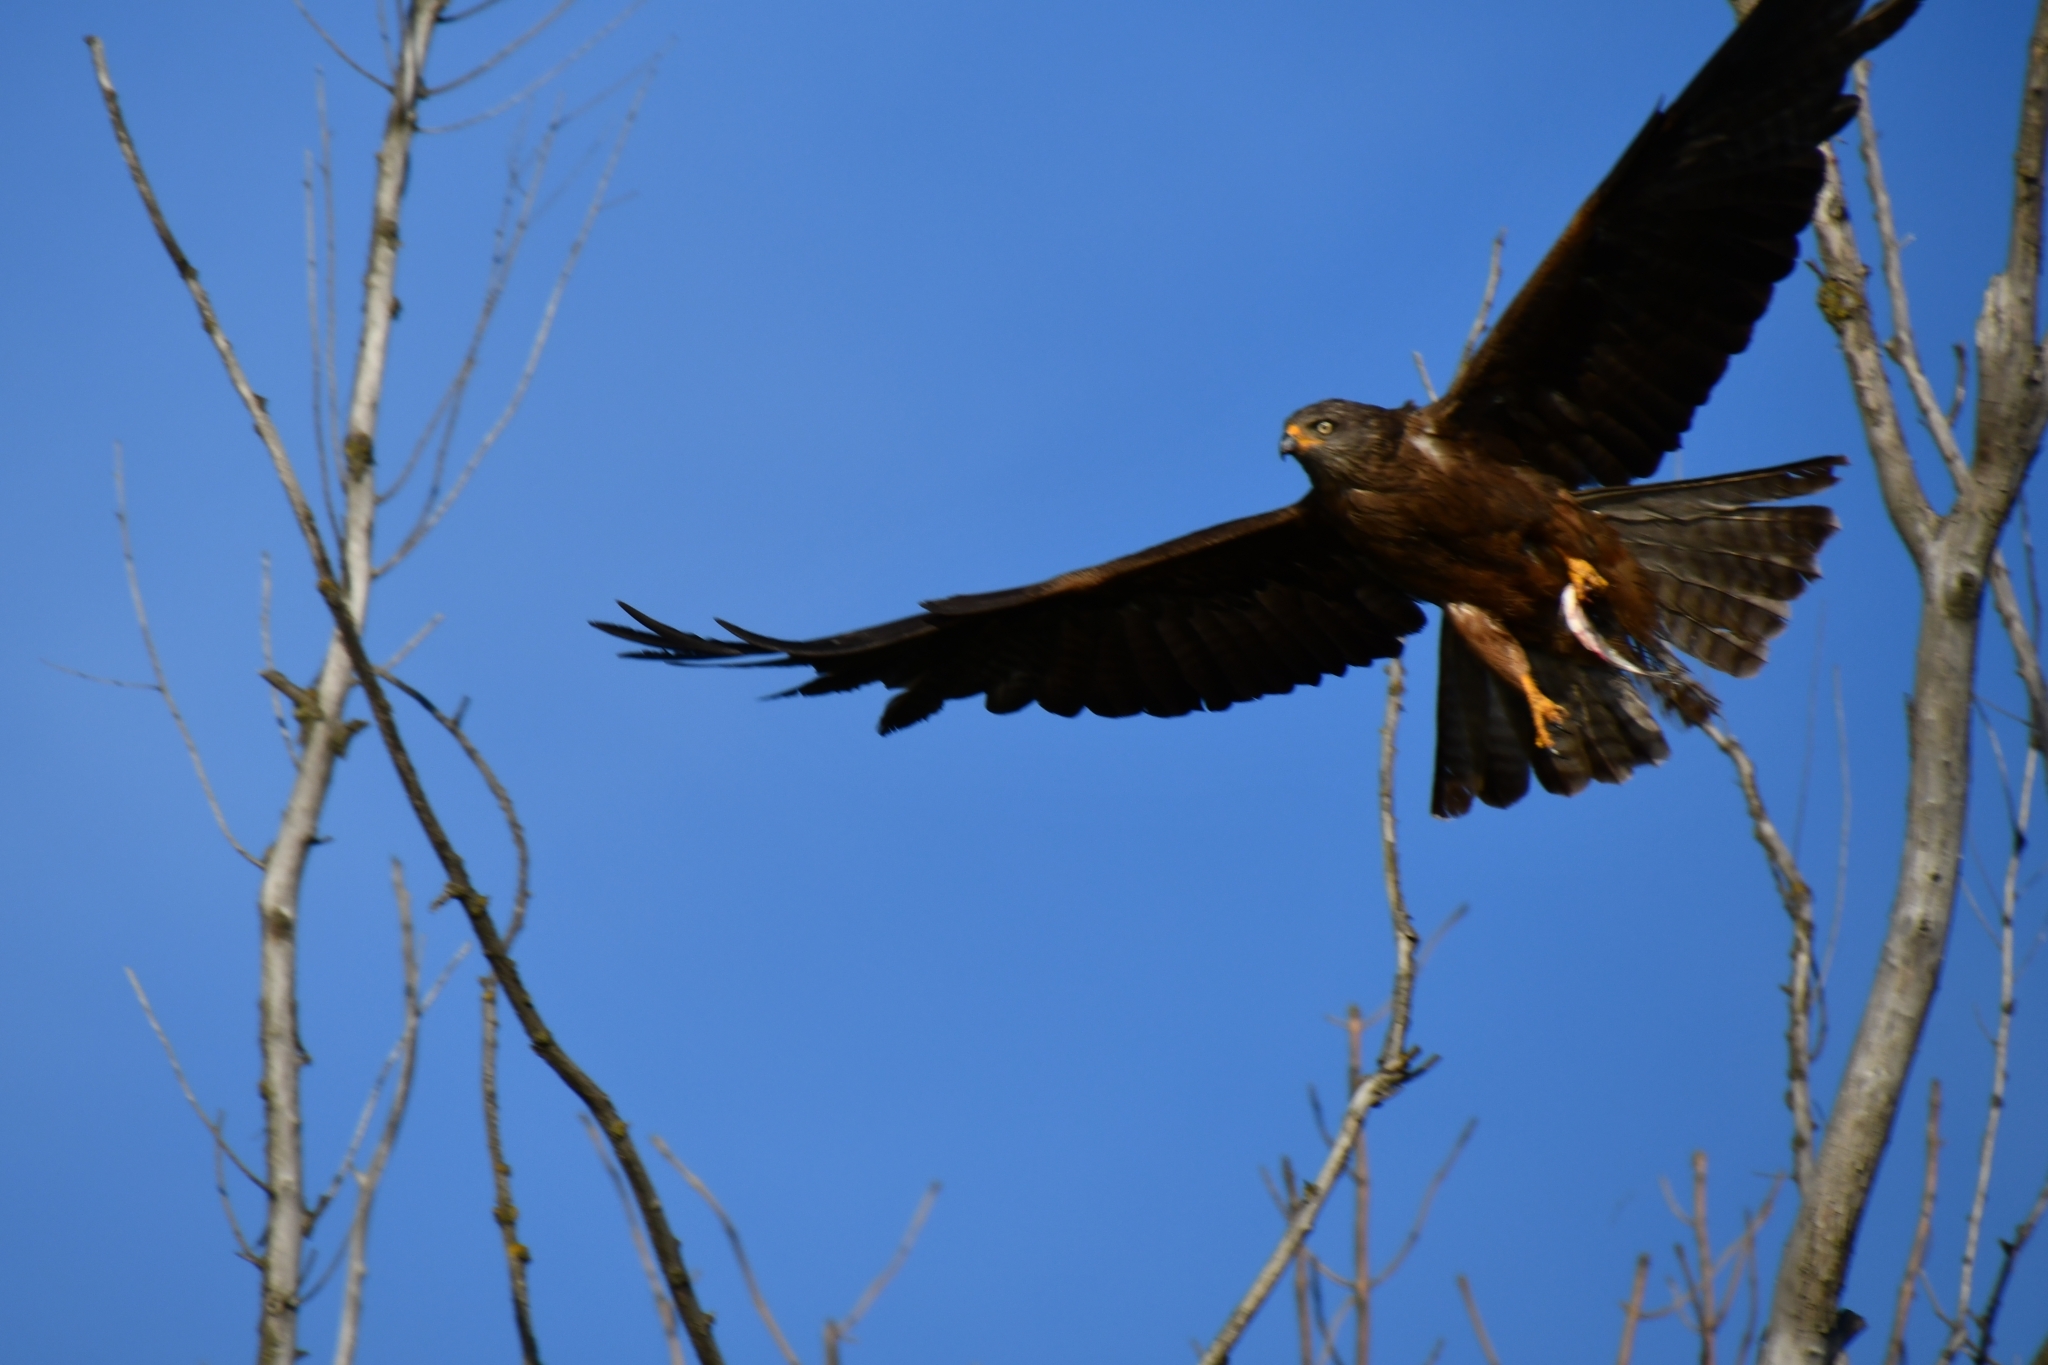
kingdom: Animalia
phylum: Chordata
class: Aves
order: Accipitriformes
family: Accipitridae
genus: Milvus
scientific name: Milvus migrans
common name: Black kite
